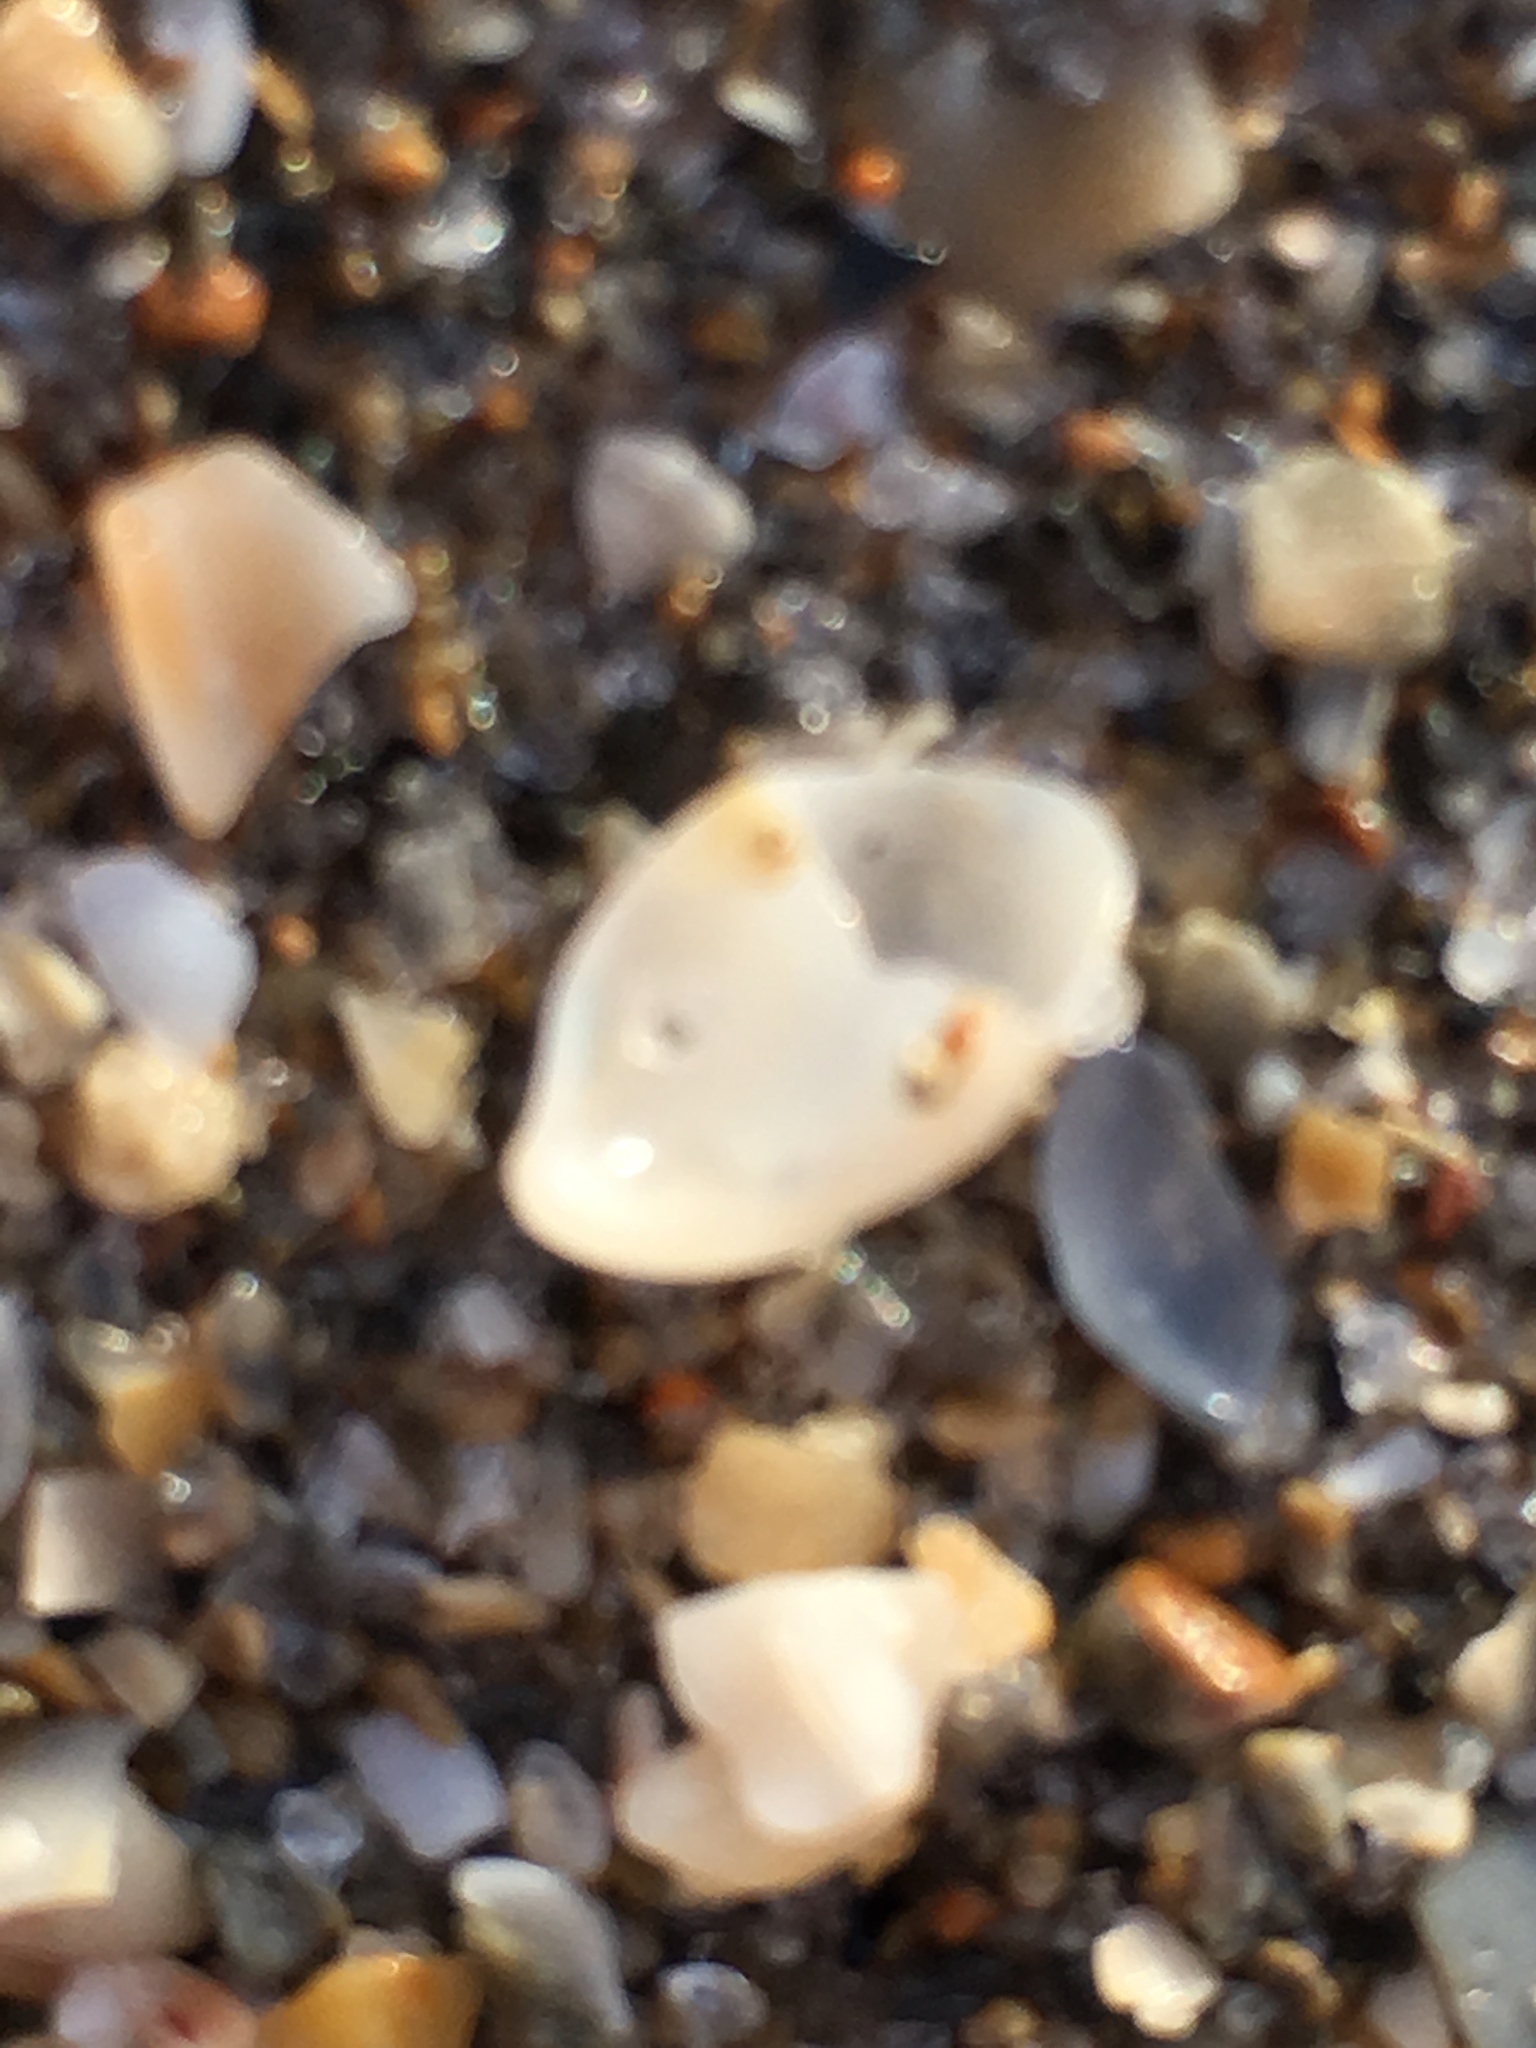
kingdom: Animalia
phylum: Mollusca
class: Gastropoda
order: Littorinimorpha
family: Calyptraeidae
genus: Crepidula
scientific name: Crepidula fornicata
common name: Slipper limpet
